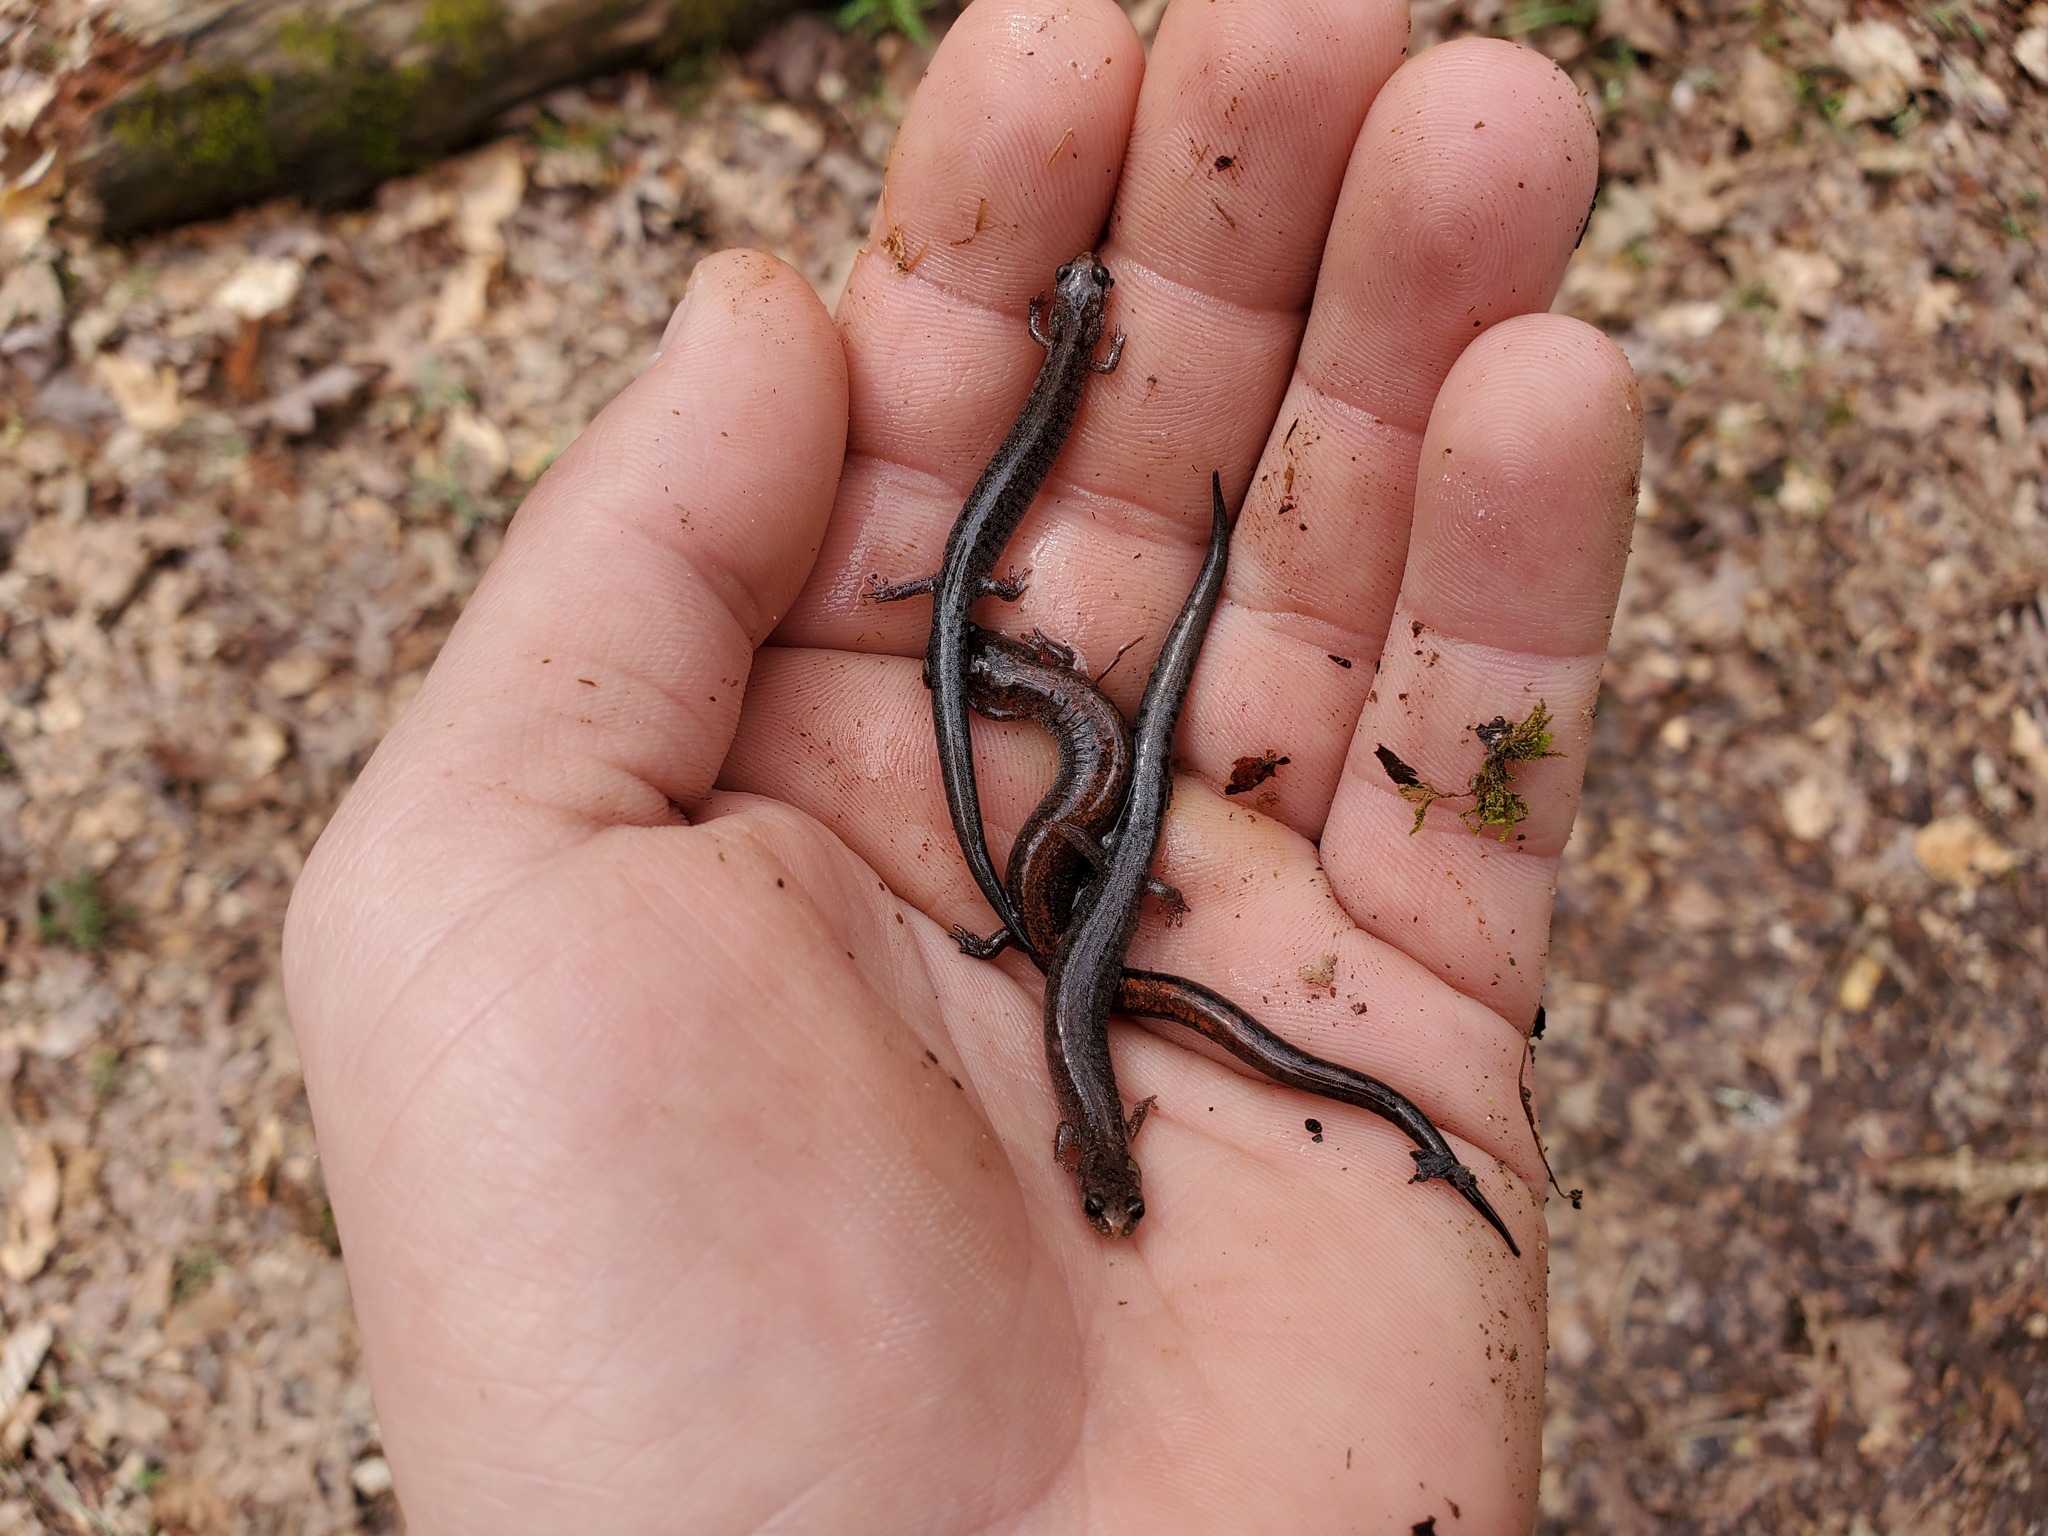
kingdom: Animalia
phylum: Chordata
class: Amphibia
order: Caudata
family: Plethodontidae
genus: Plethodon
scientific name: Plethodon dorsalis
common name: Northern zigzag salamander
